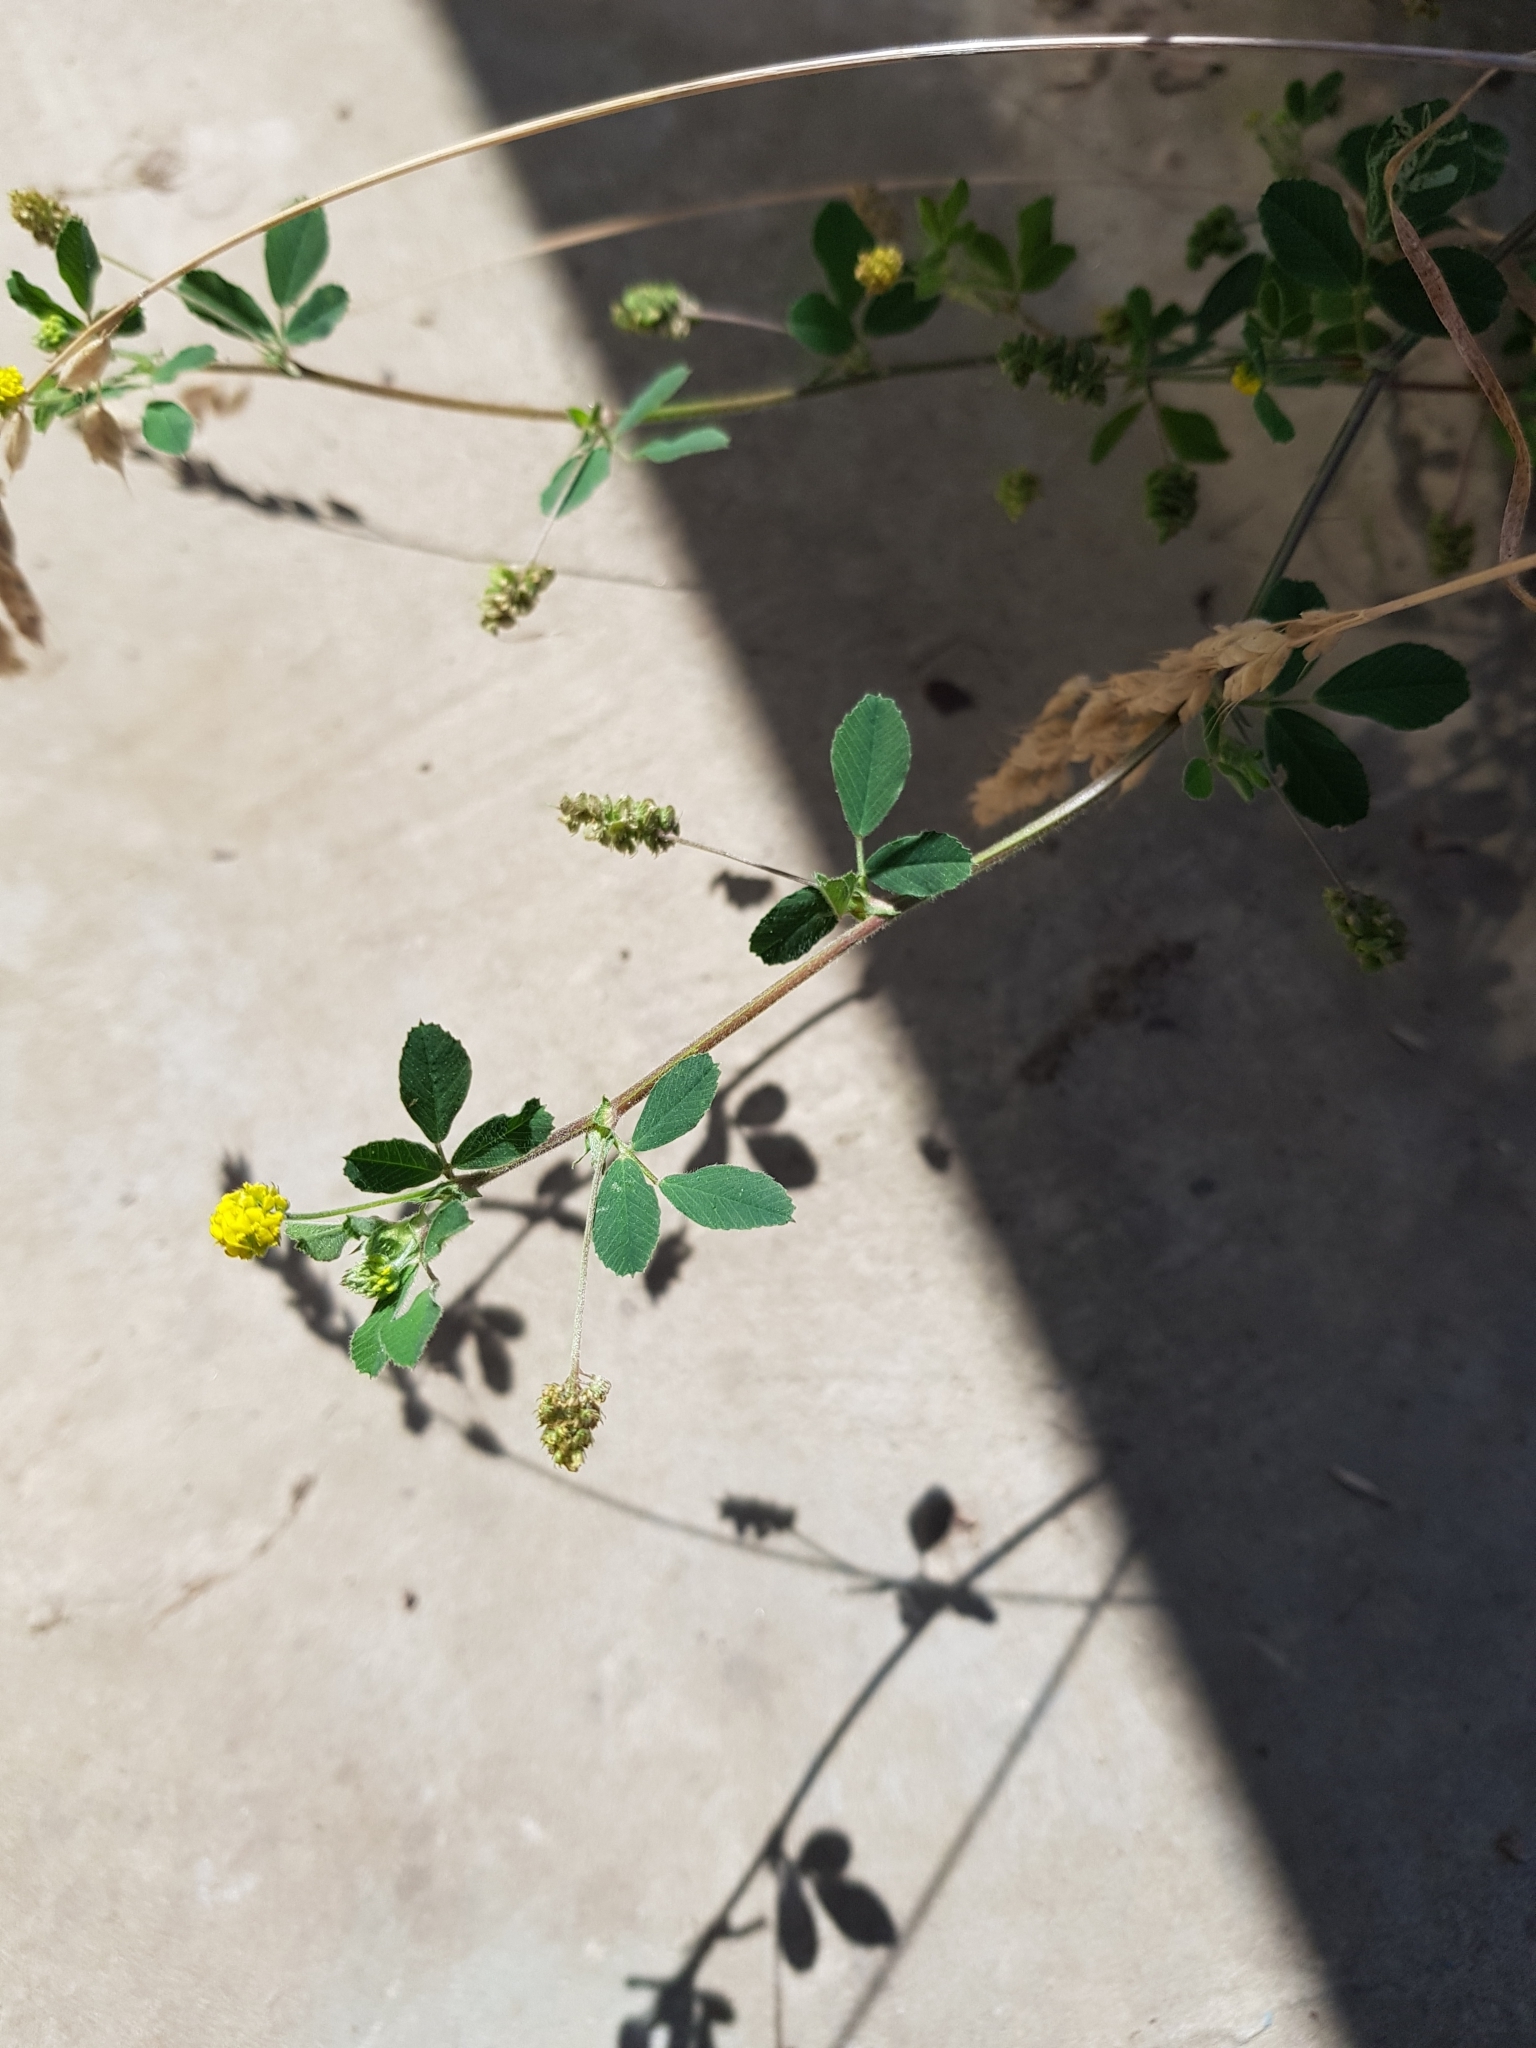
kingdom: Plantae
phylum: Tracheophyta
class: Magnoliopsida
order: Fabales
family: Fabaceae
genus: Medicago
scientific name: Medicago lupulina
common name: Black medick
